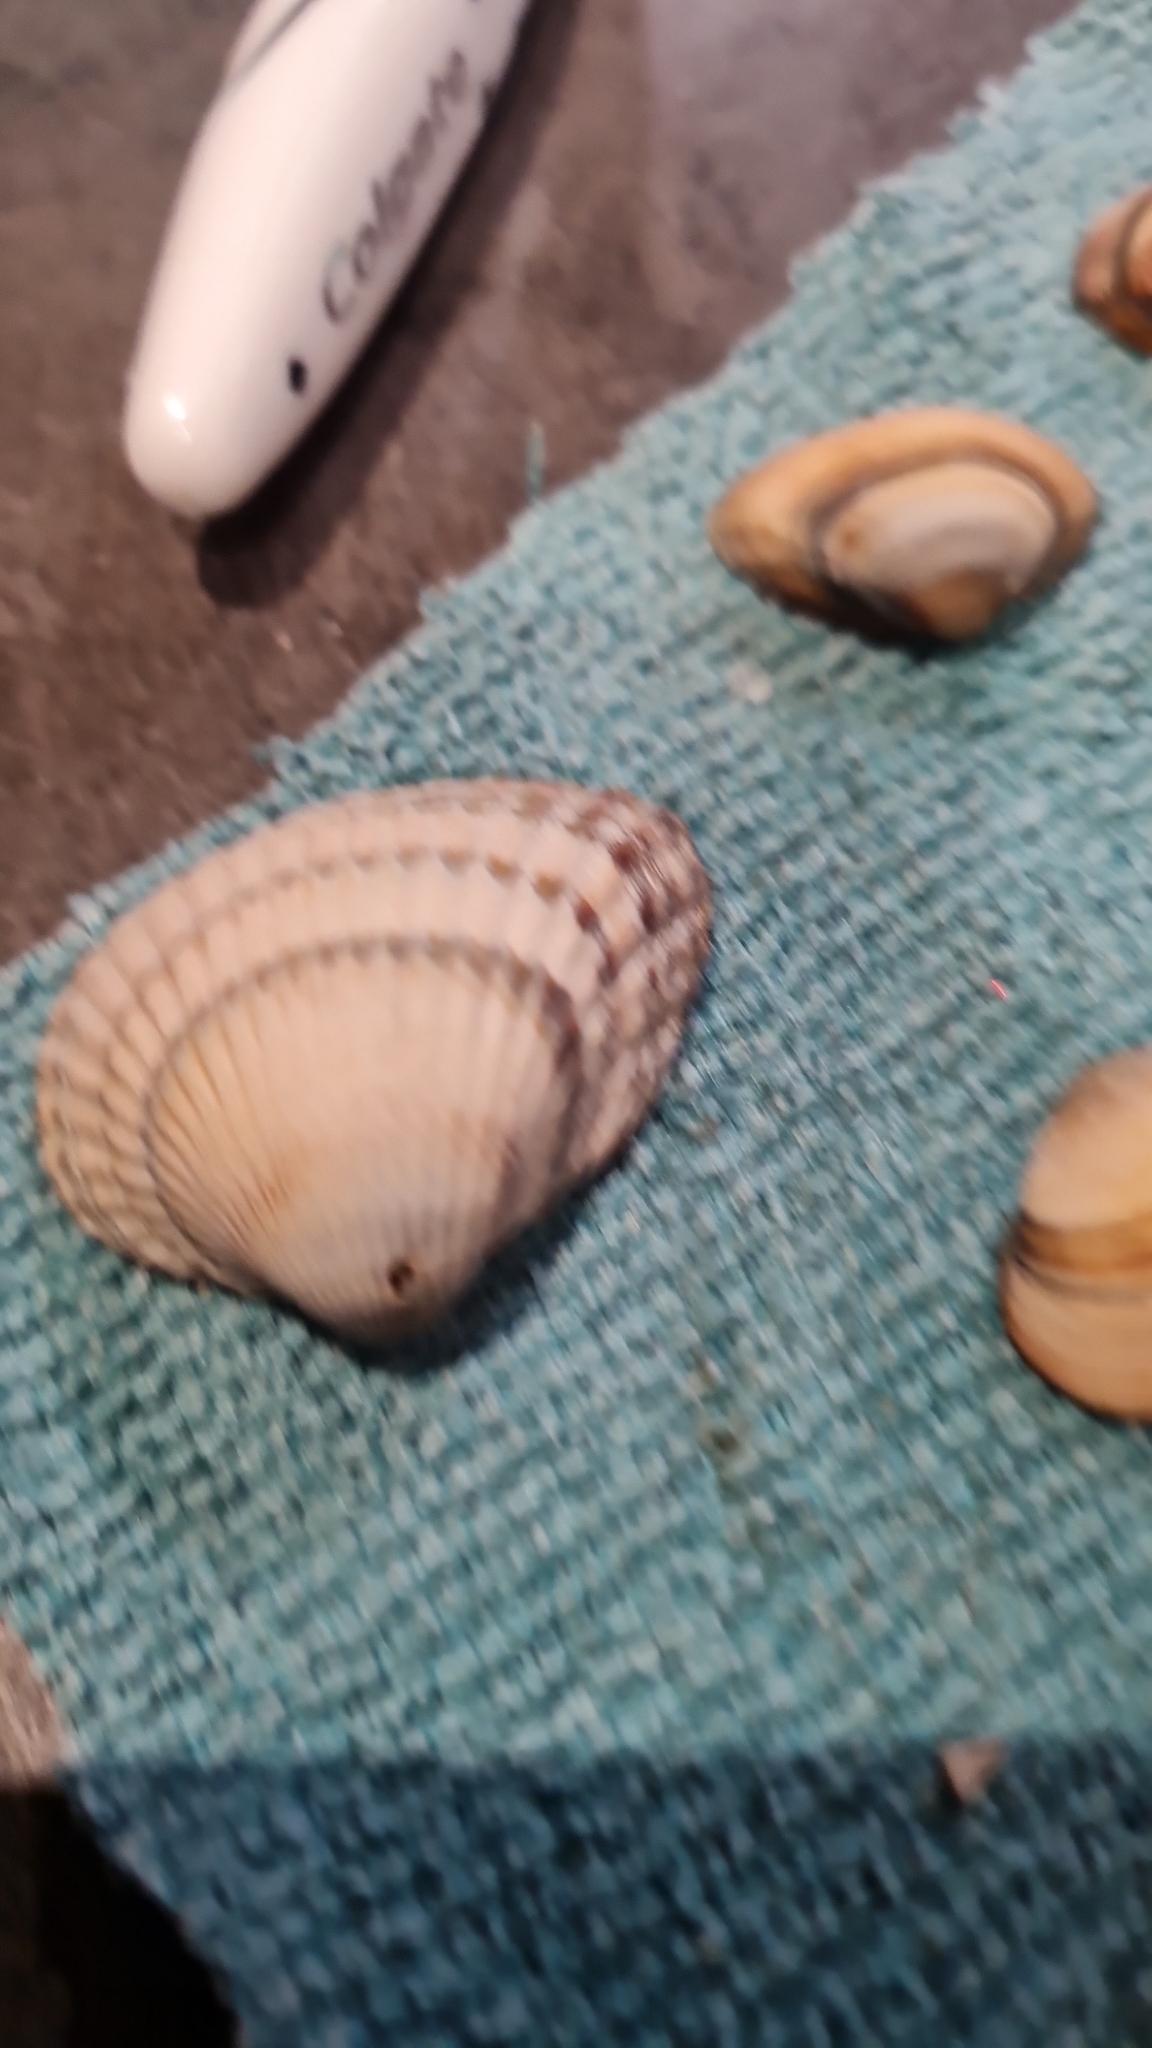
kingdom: Animalia
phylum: Mollusca
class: Bivalvia
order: Cardiida
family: Cardiidae
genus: Cerastoderma
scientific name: Cerastoderma edule
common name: Common cockle
